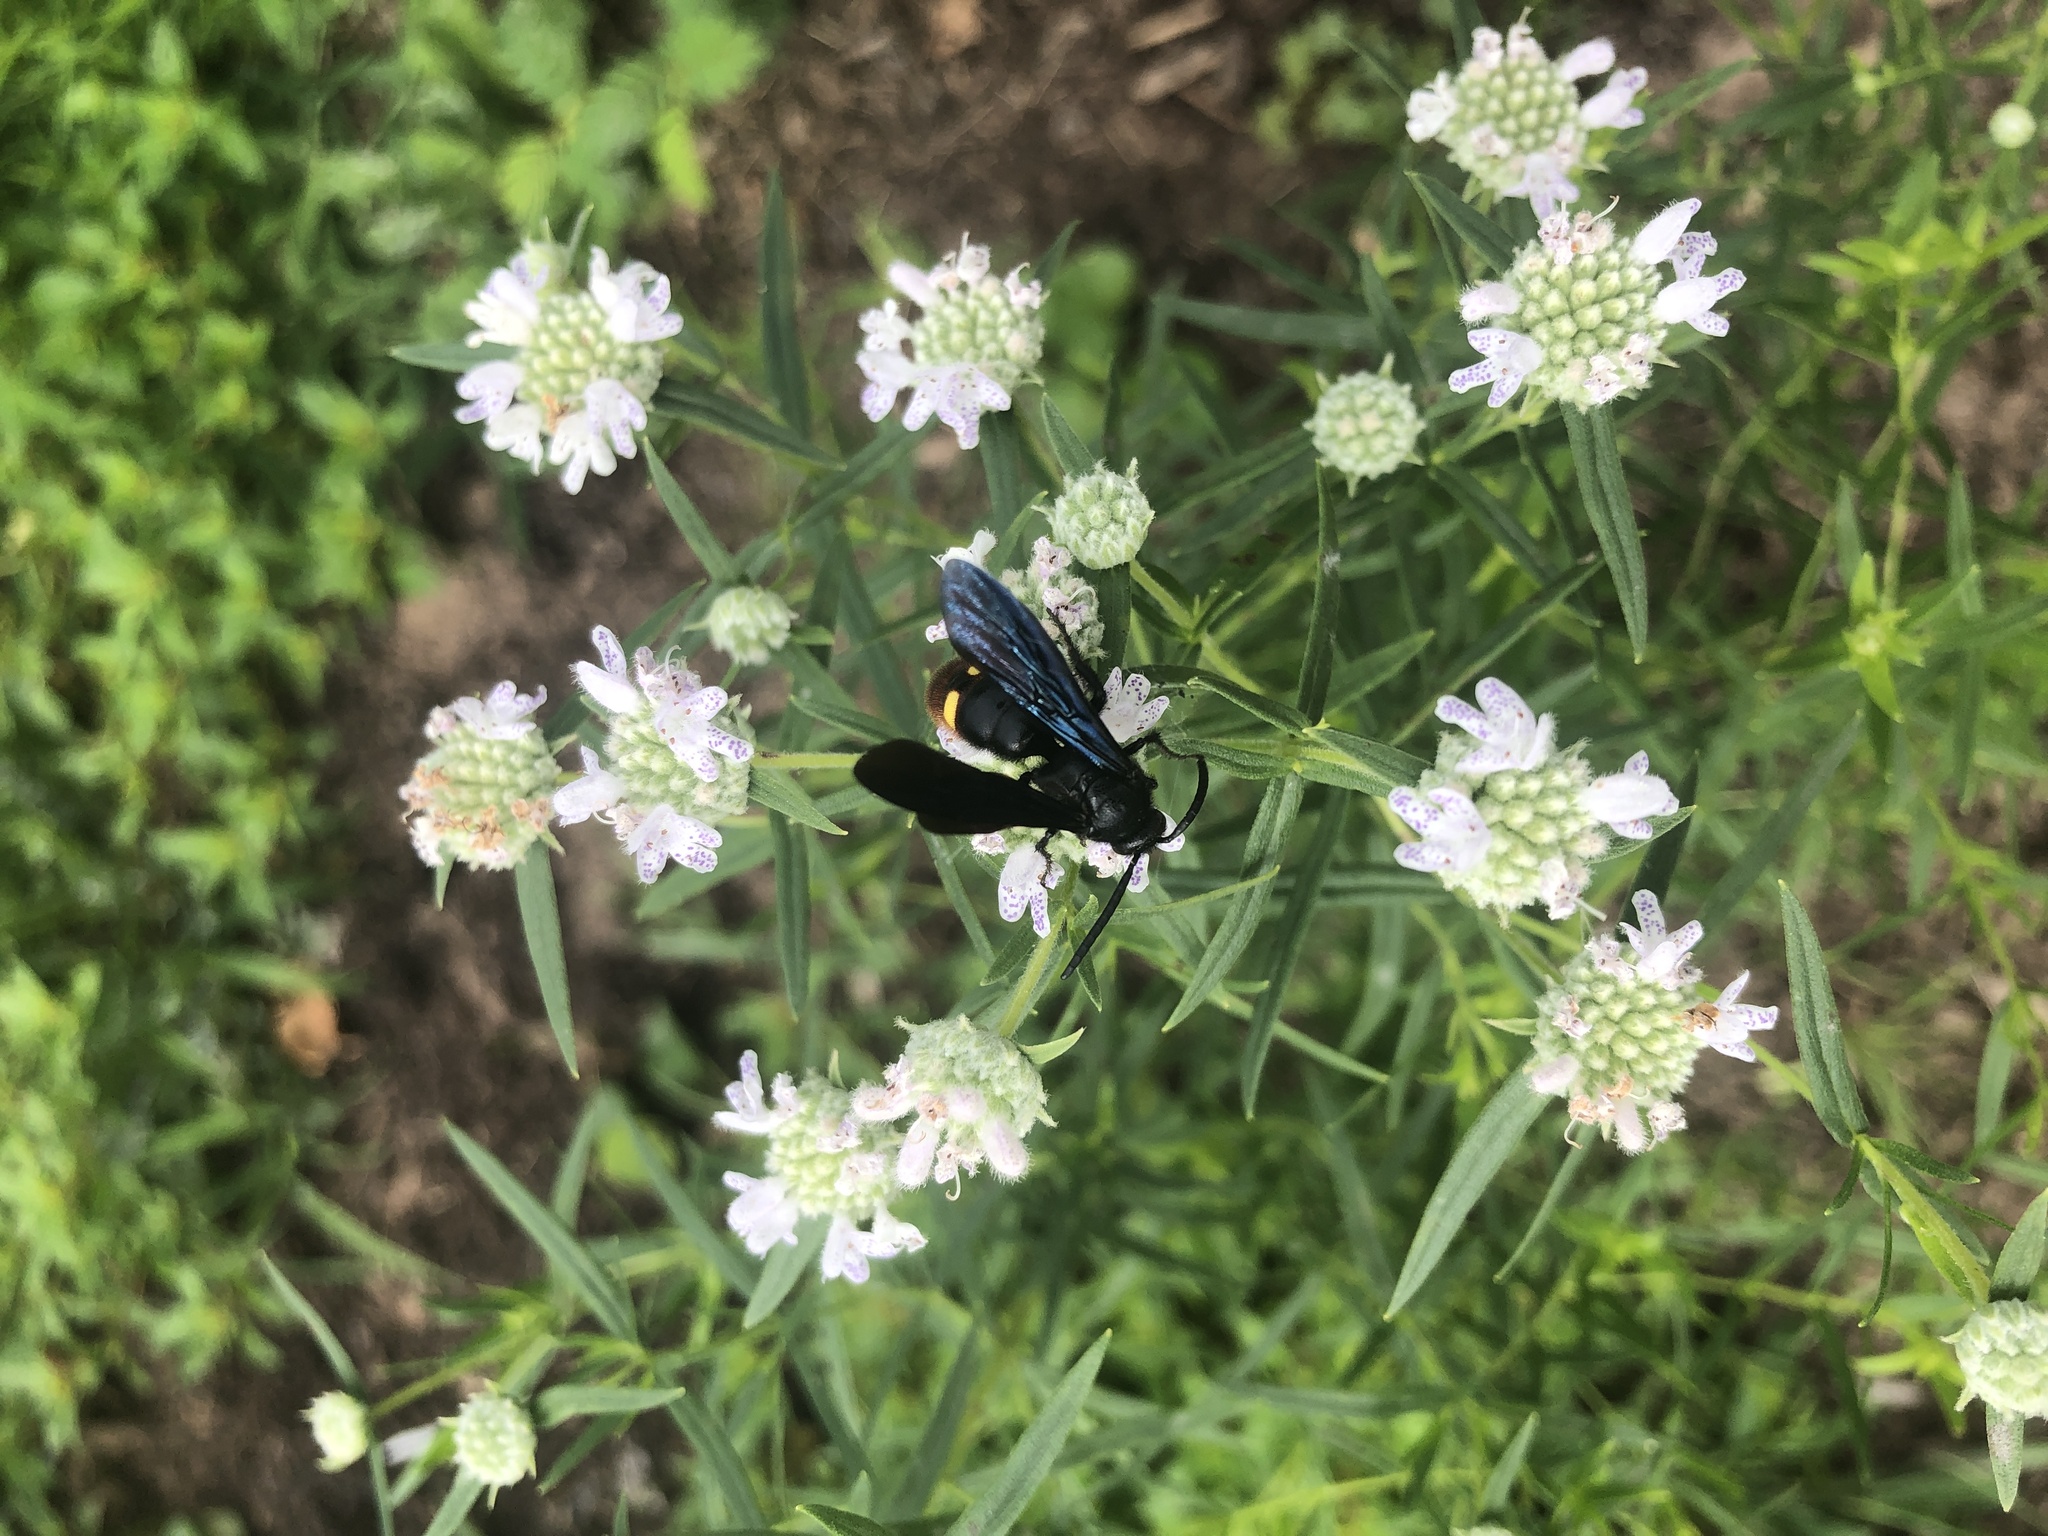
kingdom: Animalia
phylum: Arthropoda
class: Insecta
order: Hymenoptera
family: Scoliidae
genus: Scolia
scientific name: Scolia dubia
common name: Blue-winged scoliid wasp
